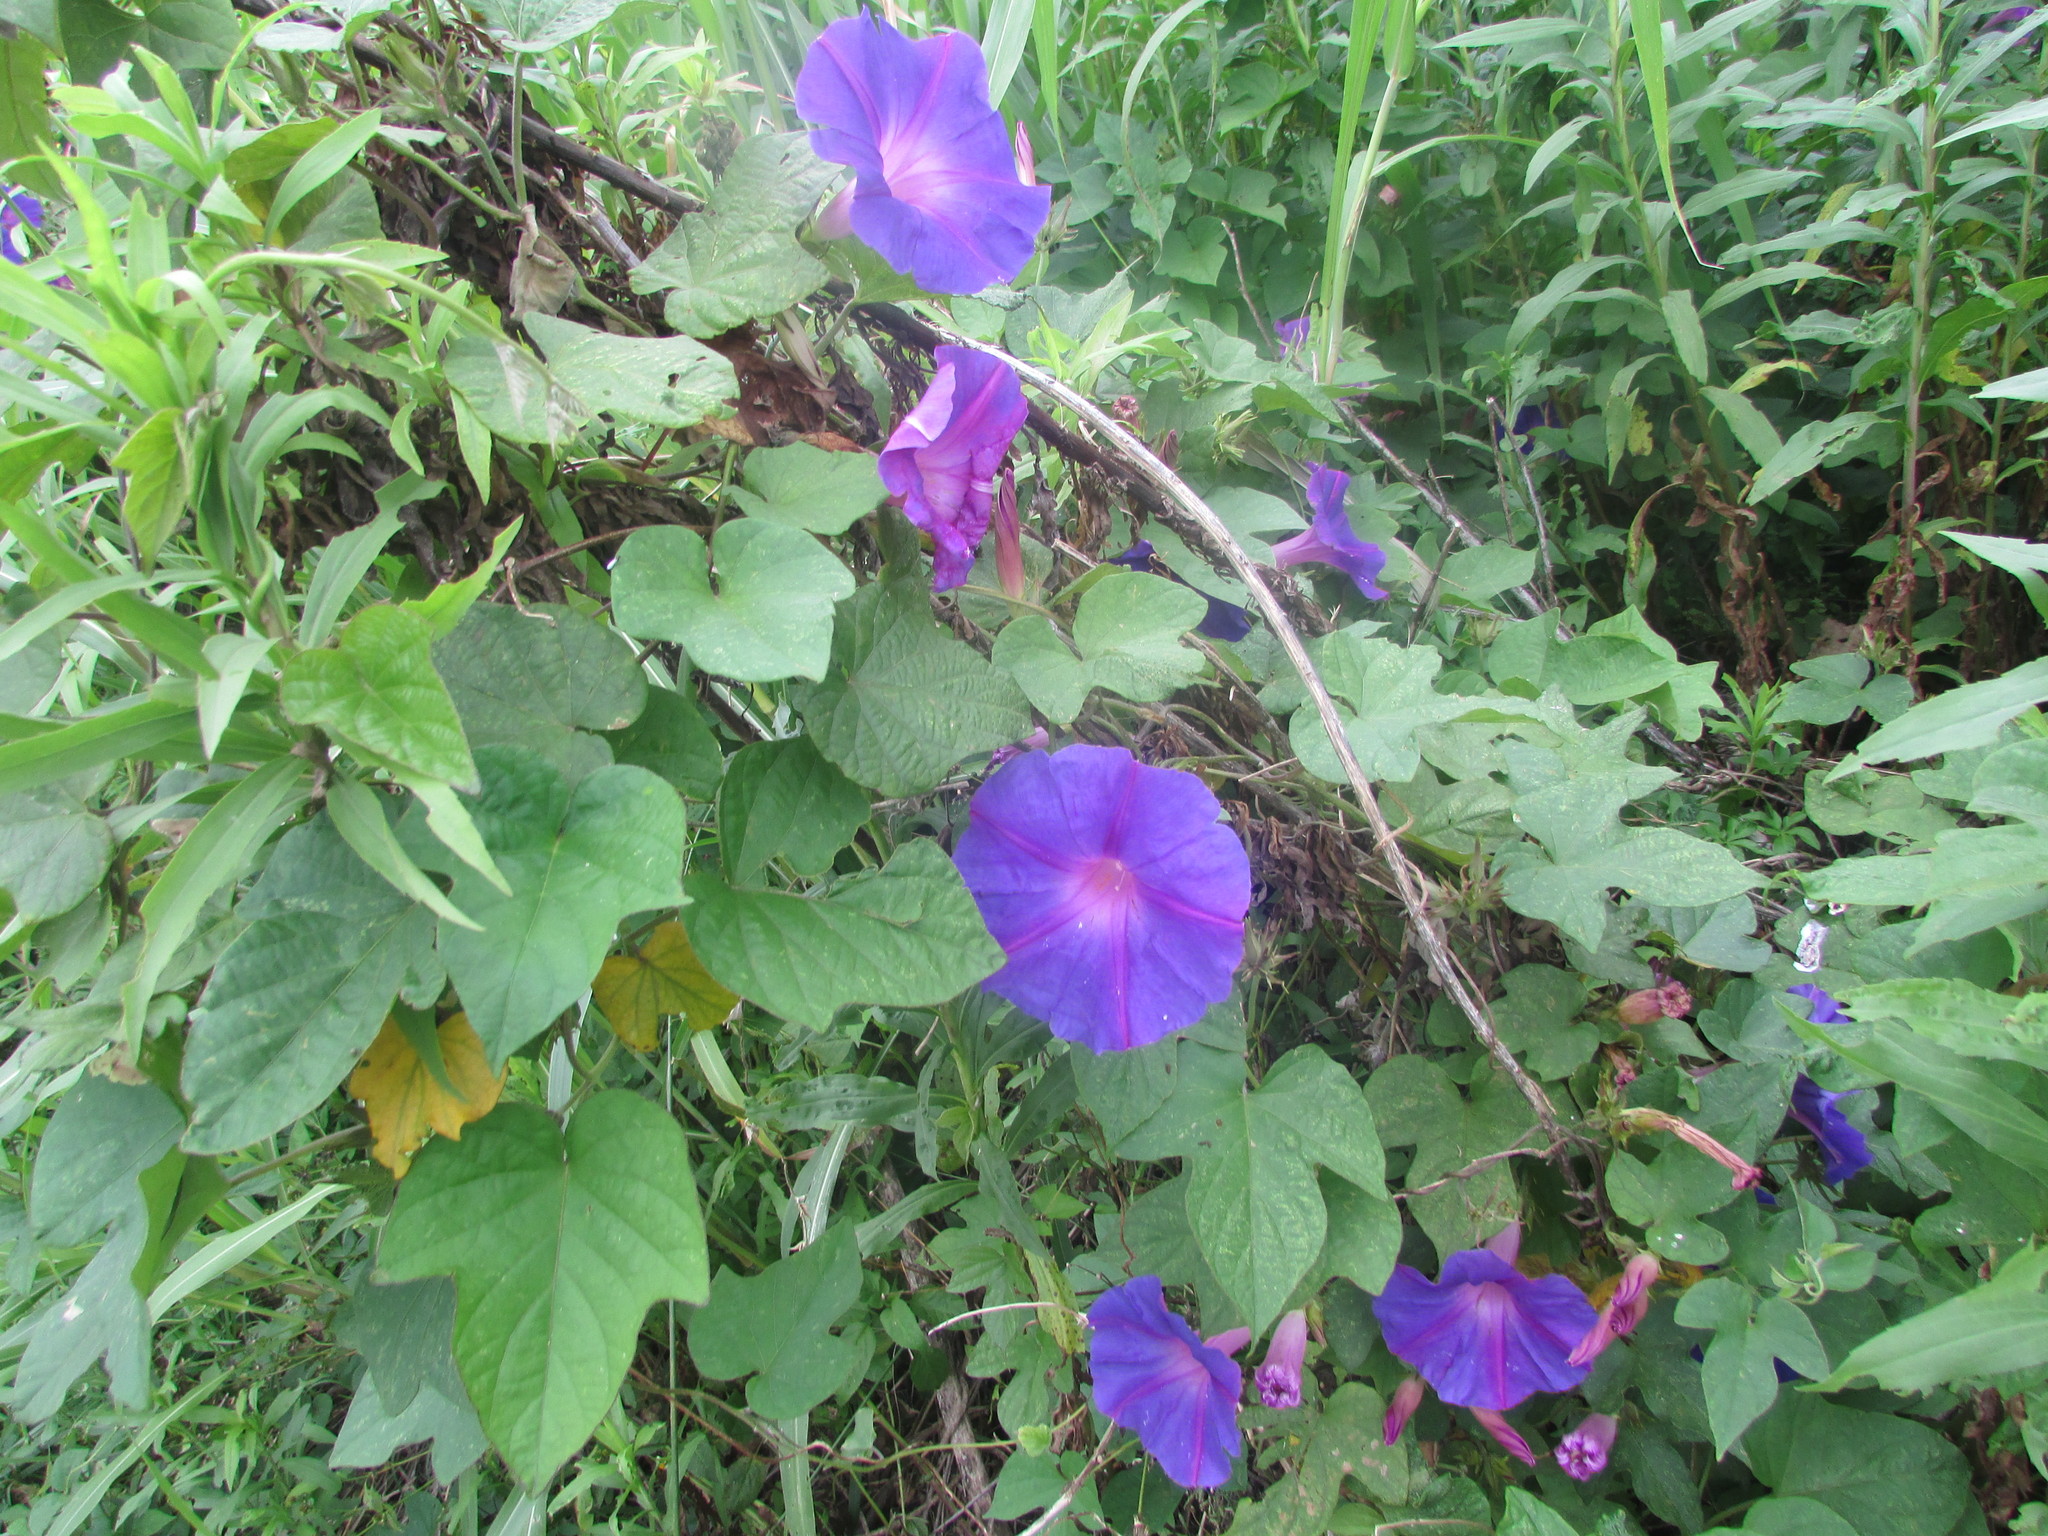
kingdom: Plantae
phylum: Tracheophyta
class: Magnoliopsida
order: Solanales
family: Convolvulaceae
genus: Ipomoea
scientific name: Ipomoea indica
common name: Blue dawnflower
